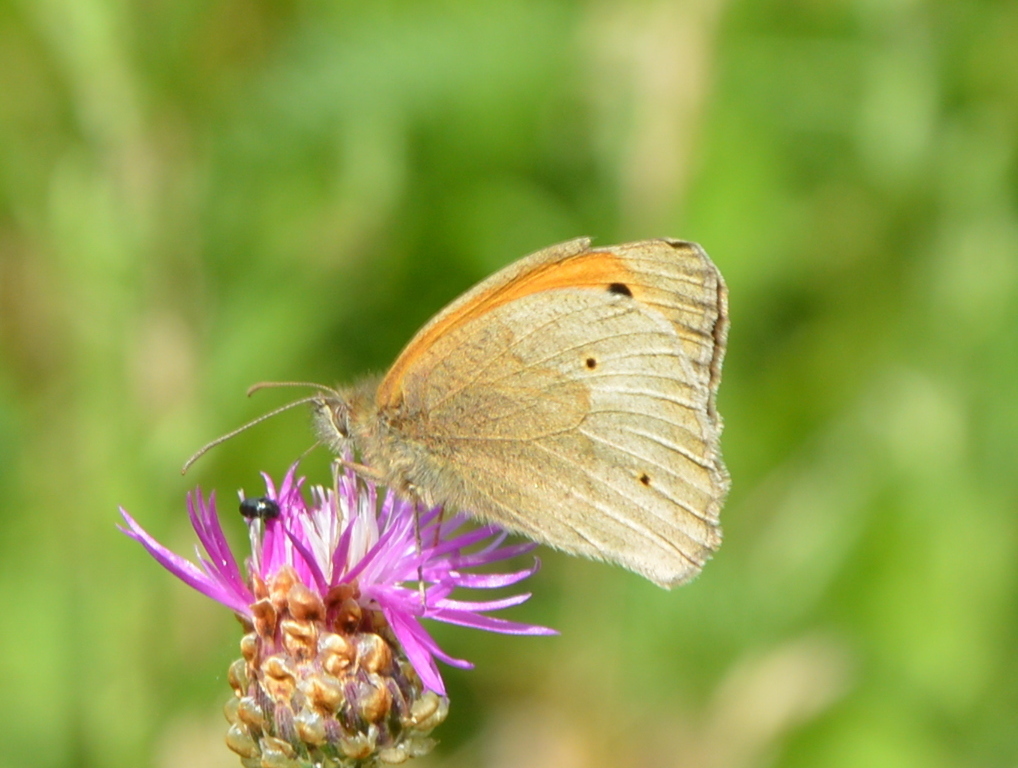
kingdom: Animalia
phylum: Arthropoda
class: Insecta
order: Lepidoptera
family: Nymphalidae
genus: Maniola
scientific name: Maniola jurtina
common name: Meadow brown
